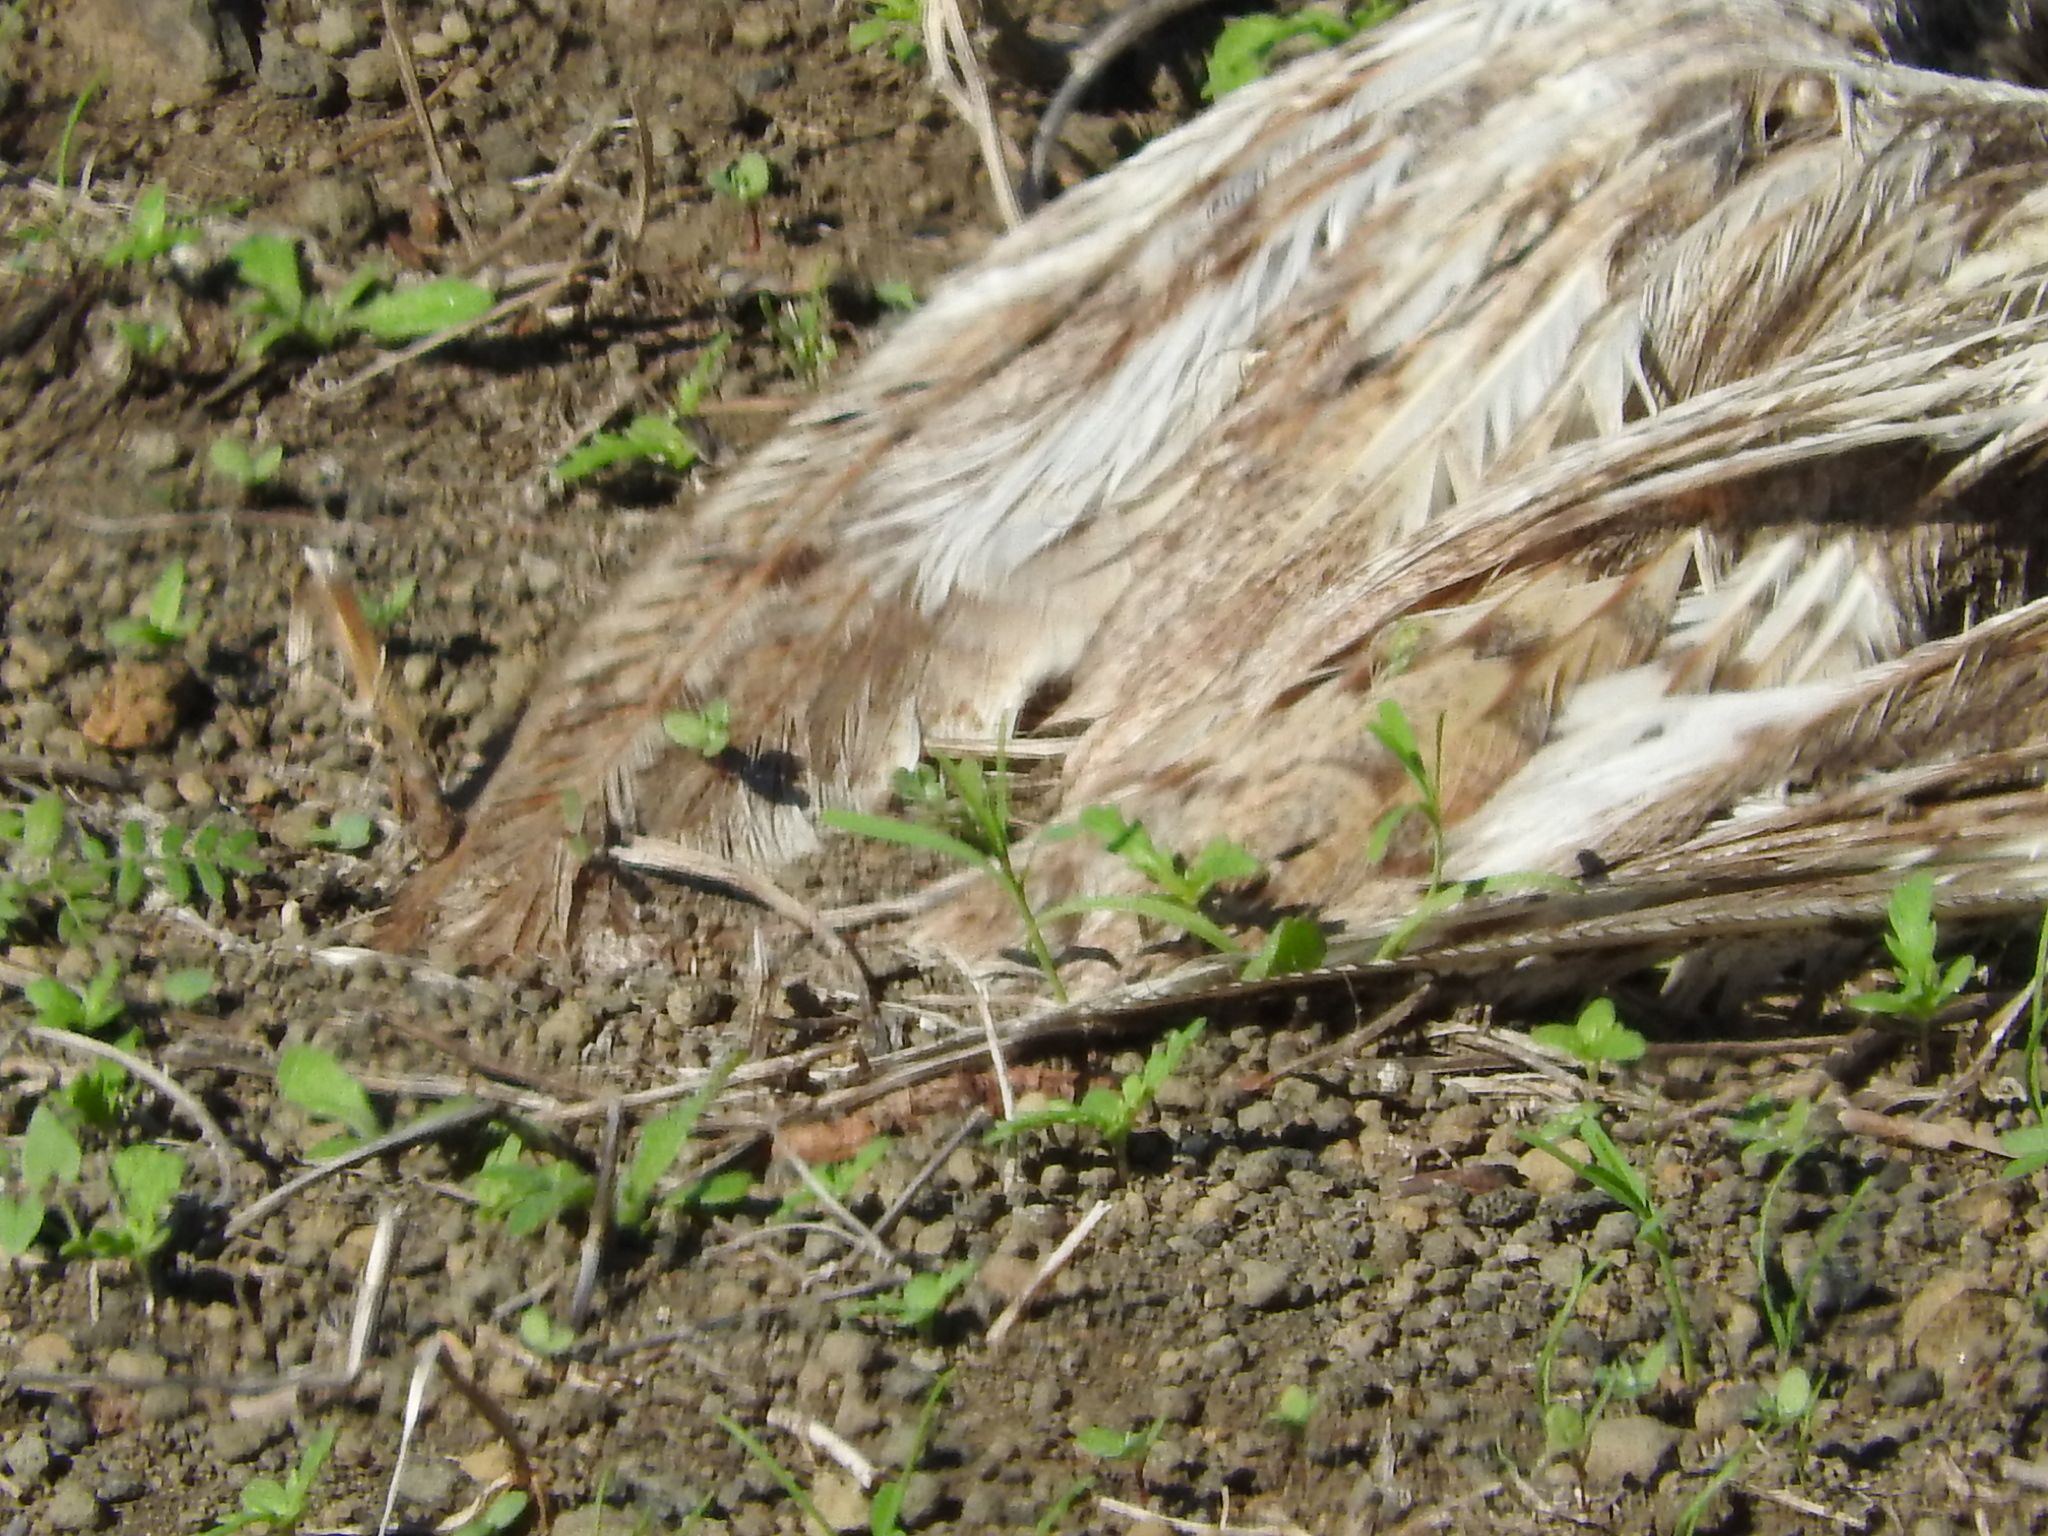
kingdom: Animalia
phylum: Chordata
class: Aves
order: Strigiformes
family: Tytonidae
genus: Tyto
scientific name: Tyto alba
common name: Barn owl
